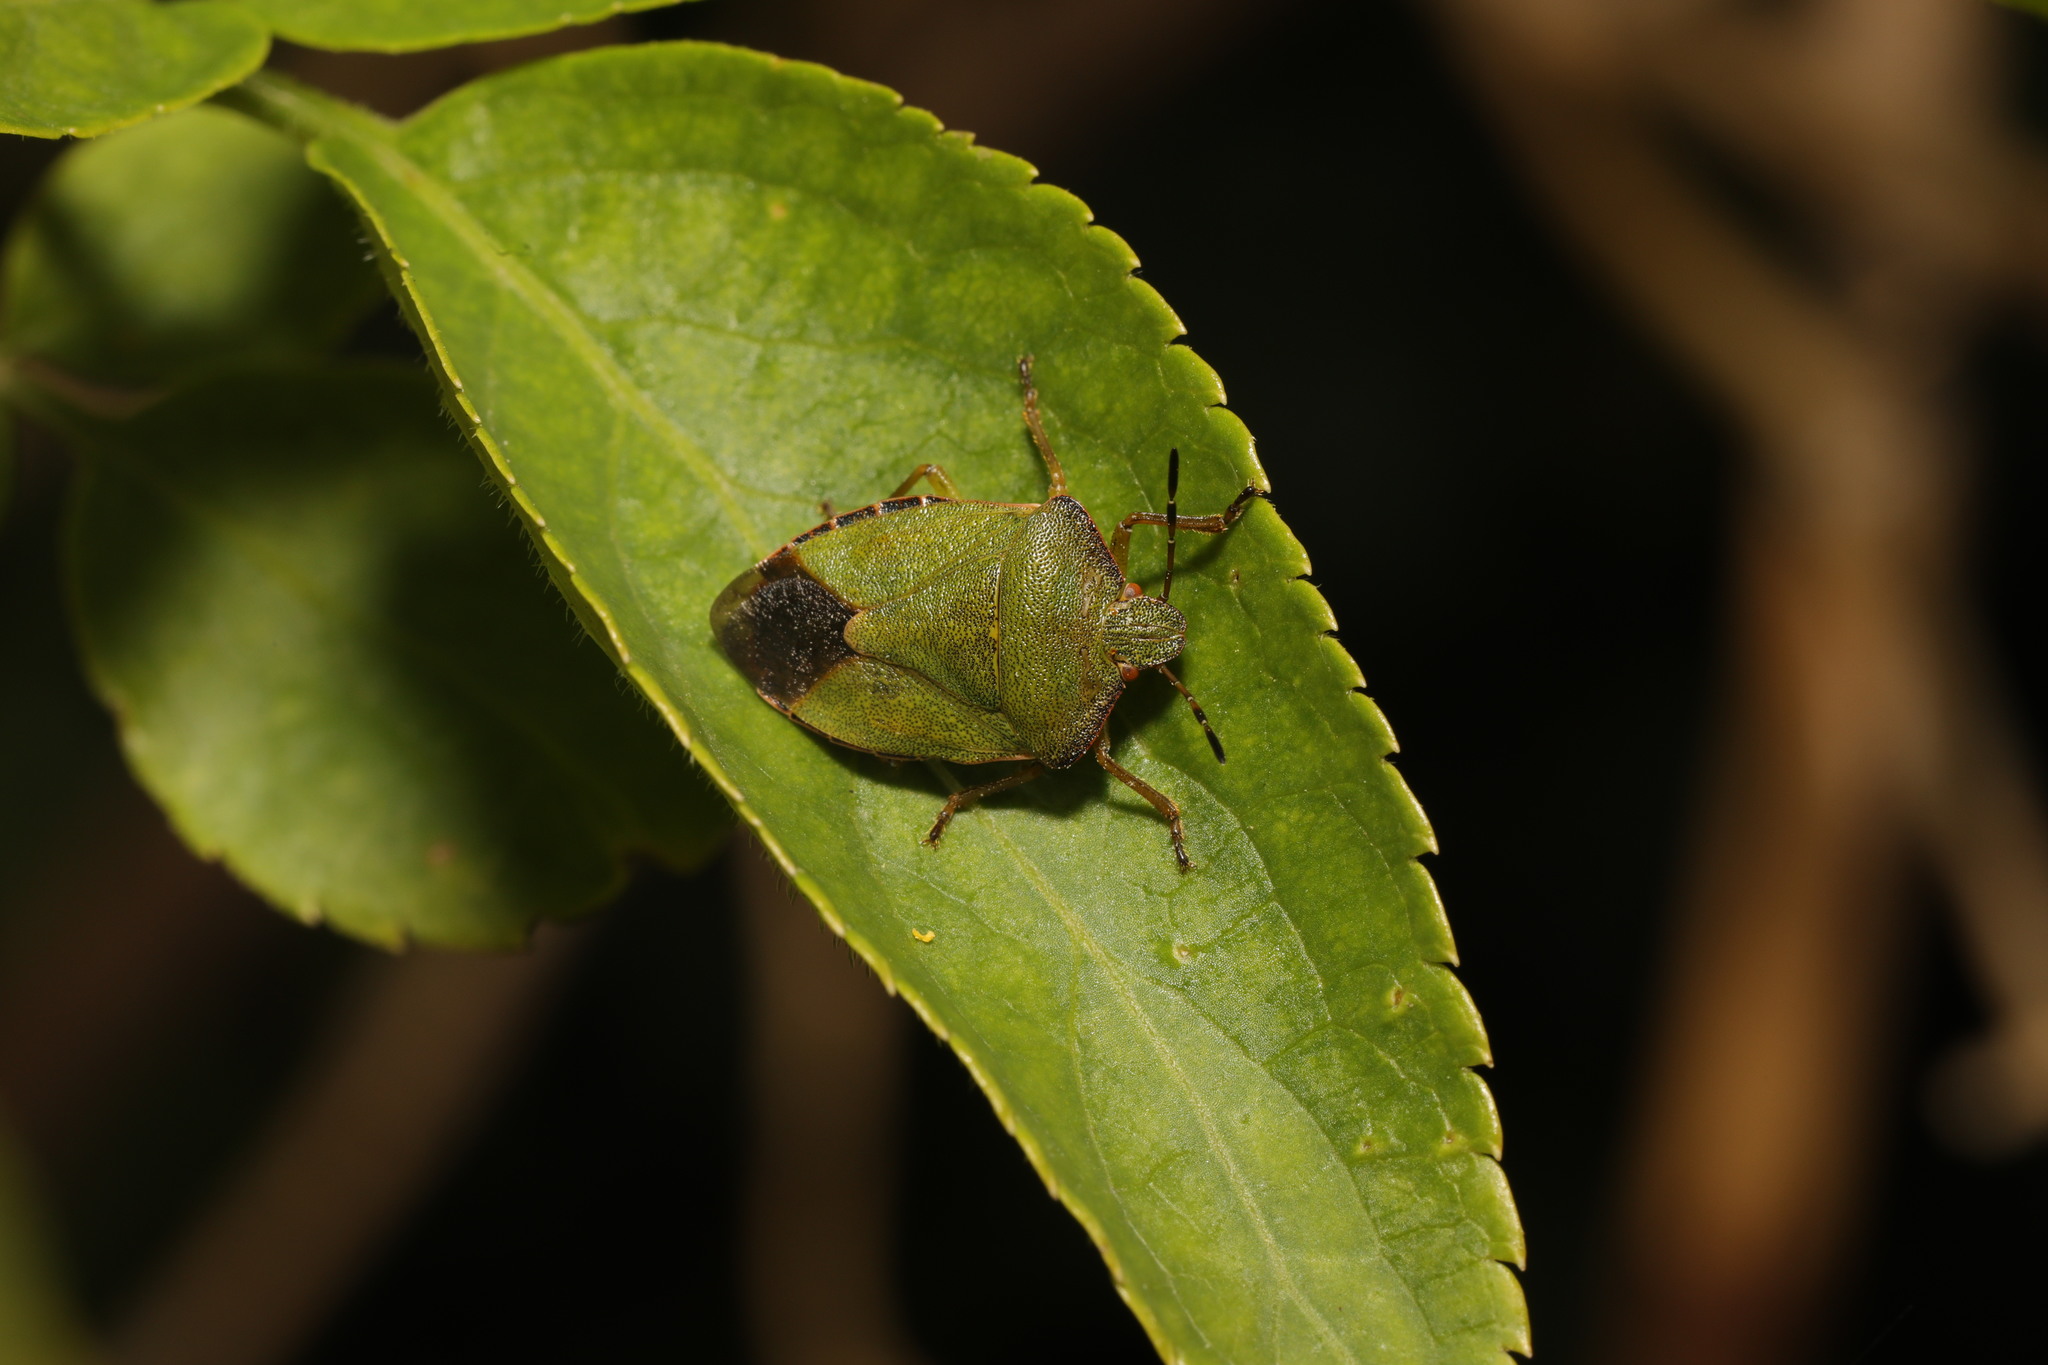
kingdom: Animalia
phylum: Arthropoda
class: Insecta
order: Hemiptera
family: Pentatomidae
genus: Palomena
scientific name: Palomena prasina
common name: Green shieldbug
